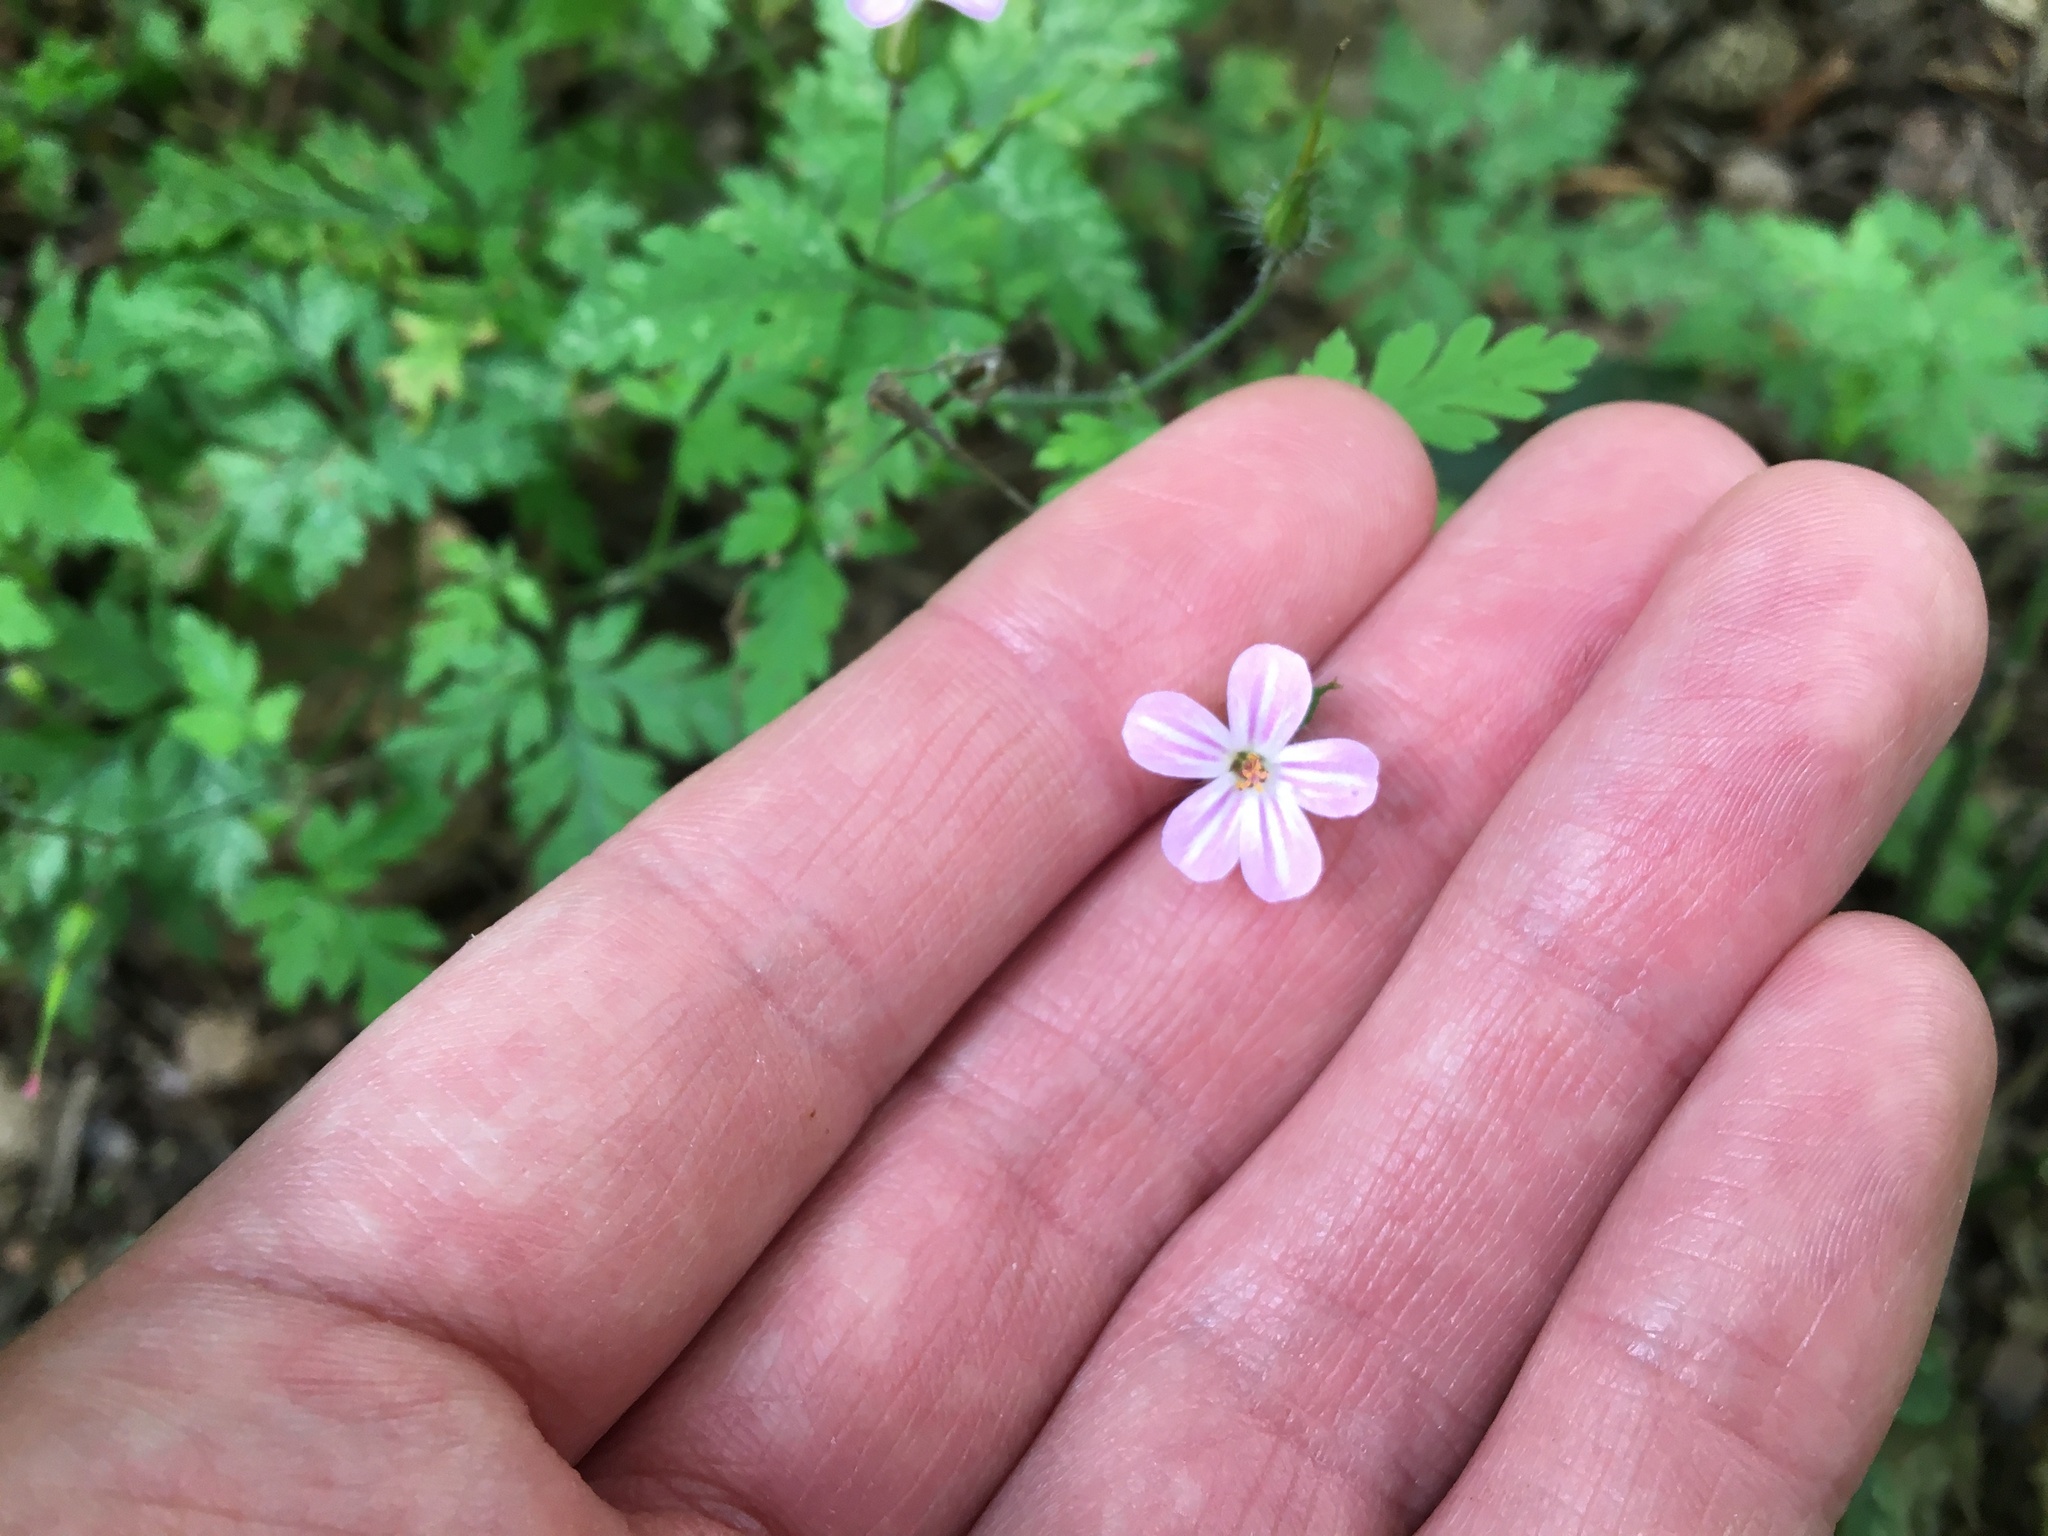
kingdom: Plantae
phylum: Tracheophyta
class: Magnoliopsida
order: Geraniales
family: Geraniaceae
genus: Geranium
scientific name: Geranium robertianum
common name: Herb-robert
